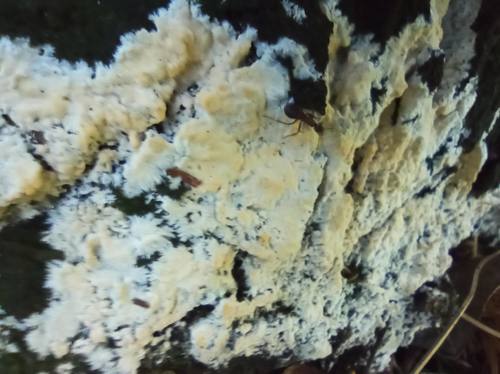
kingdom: Fungi
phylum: Basidiomycota
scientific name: Basidiomycota
